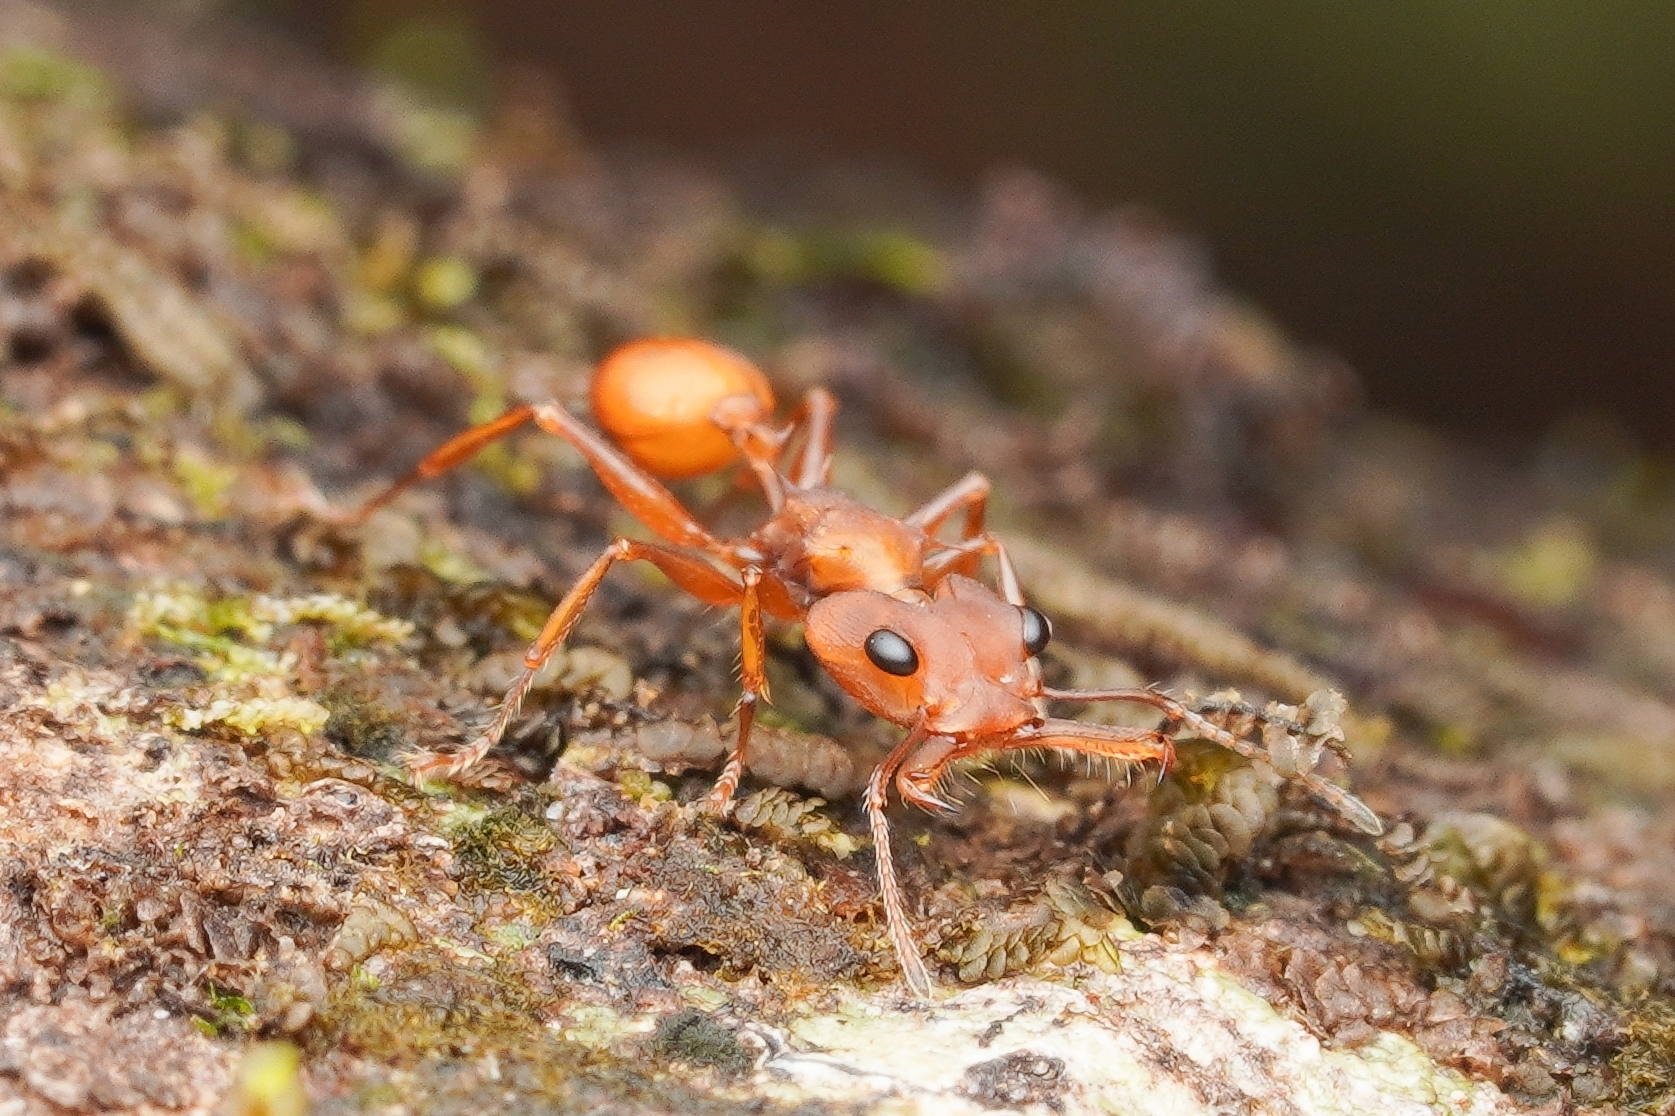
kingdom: Animalia
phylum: Arthropoda
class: Insecta
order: Hymenoptera
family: Formicidae
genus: Daceton
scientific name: Daceton armigerum
